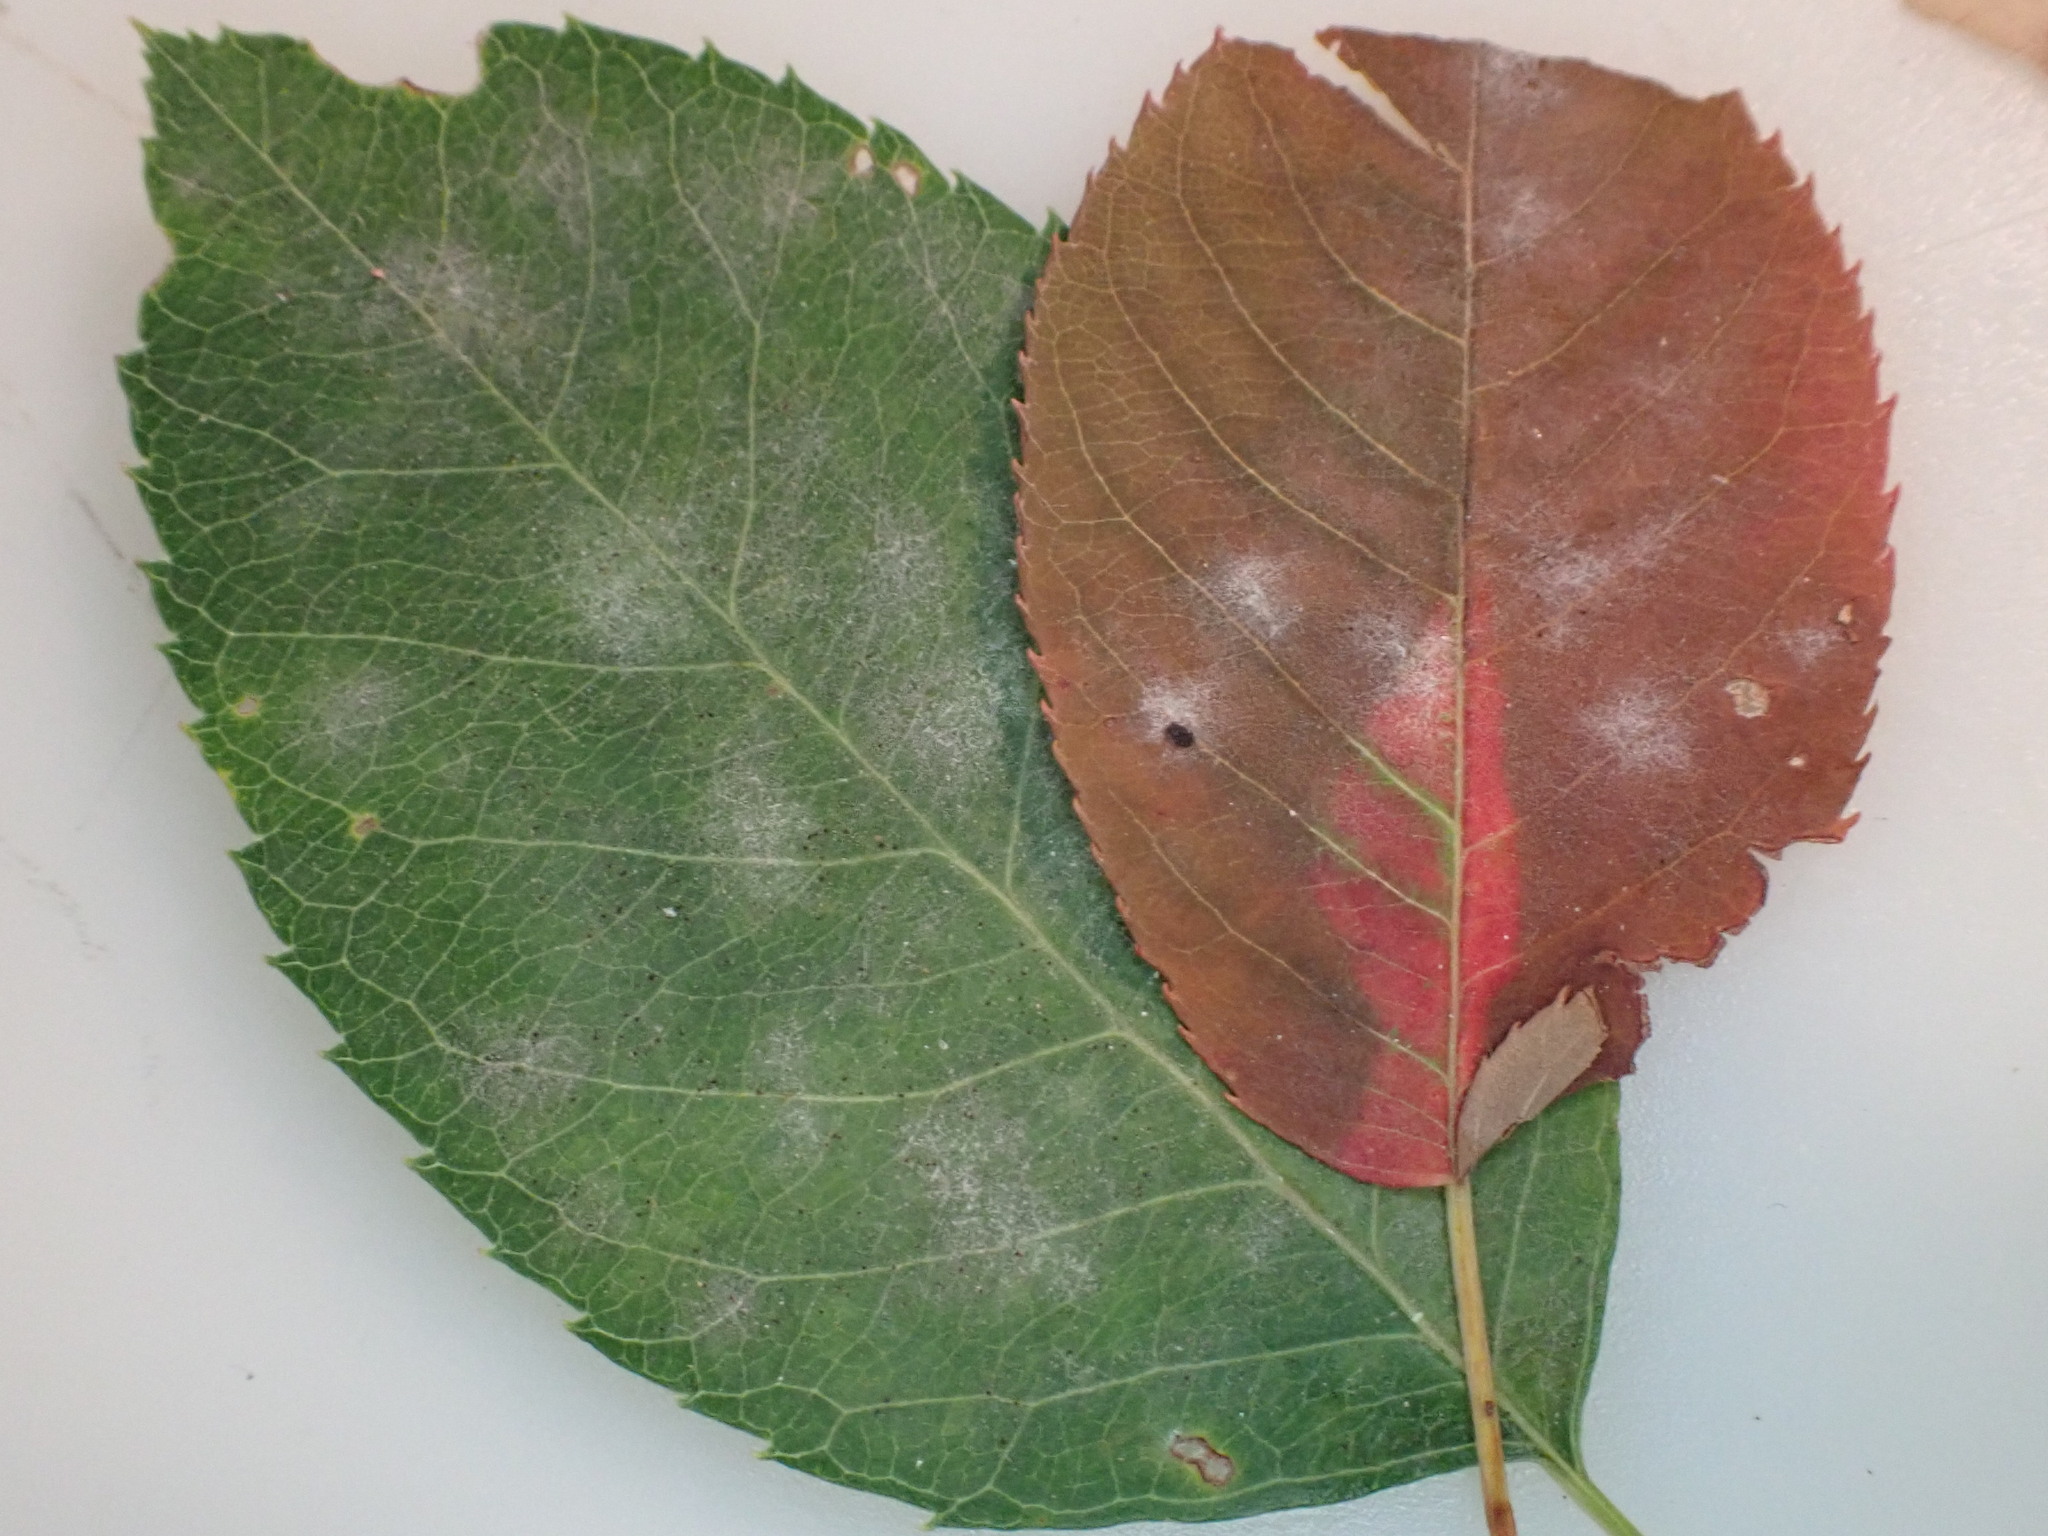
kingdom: Fungi
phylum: Ascomycota
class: Leotiomycetes
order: Helotiales
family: Erysiphaceae
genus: Podosphaera
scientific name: Podosphaera amelanchieris
